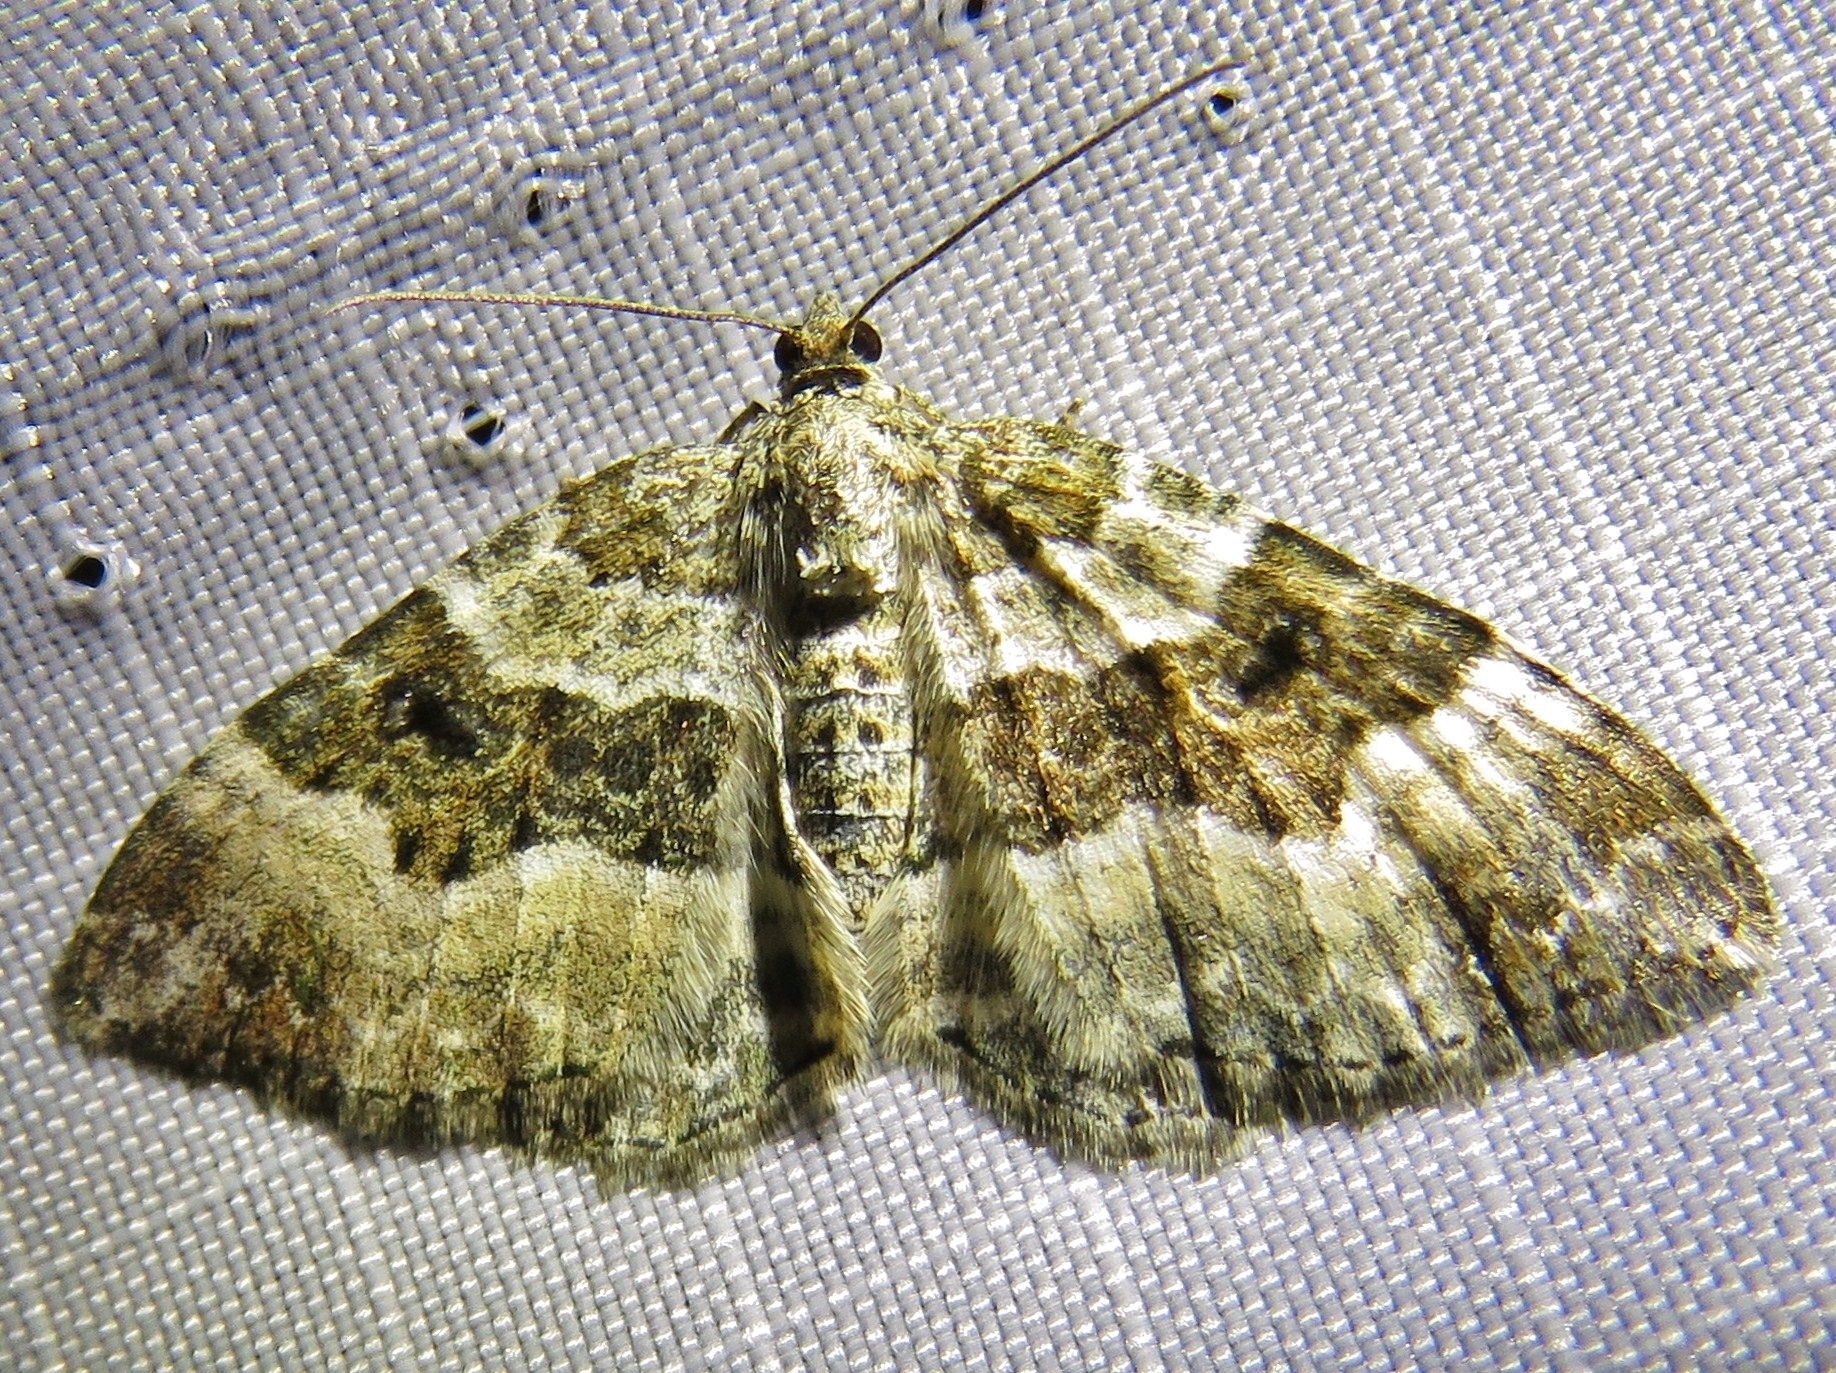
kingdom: Animalia
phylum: Arthropoda
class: Insecta
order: Lepidoptera
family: Geometridae
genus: Epirrhoe
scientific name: Epirrhoe alternata
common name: Common carpet
